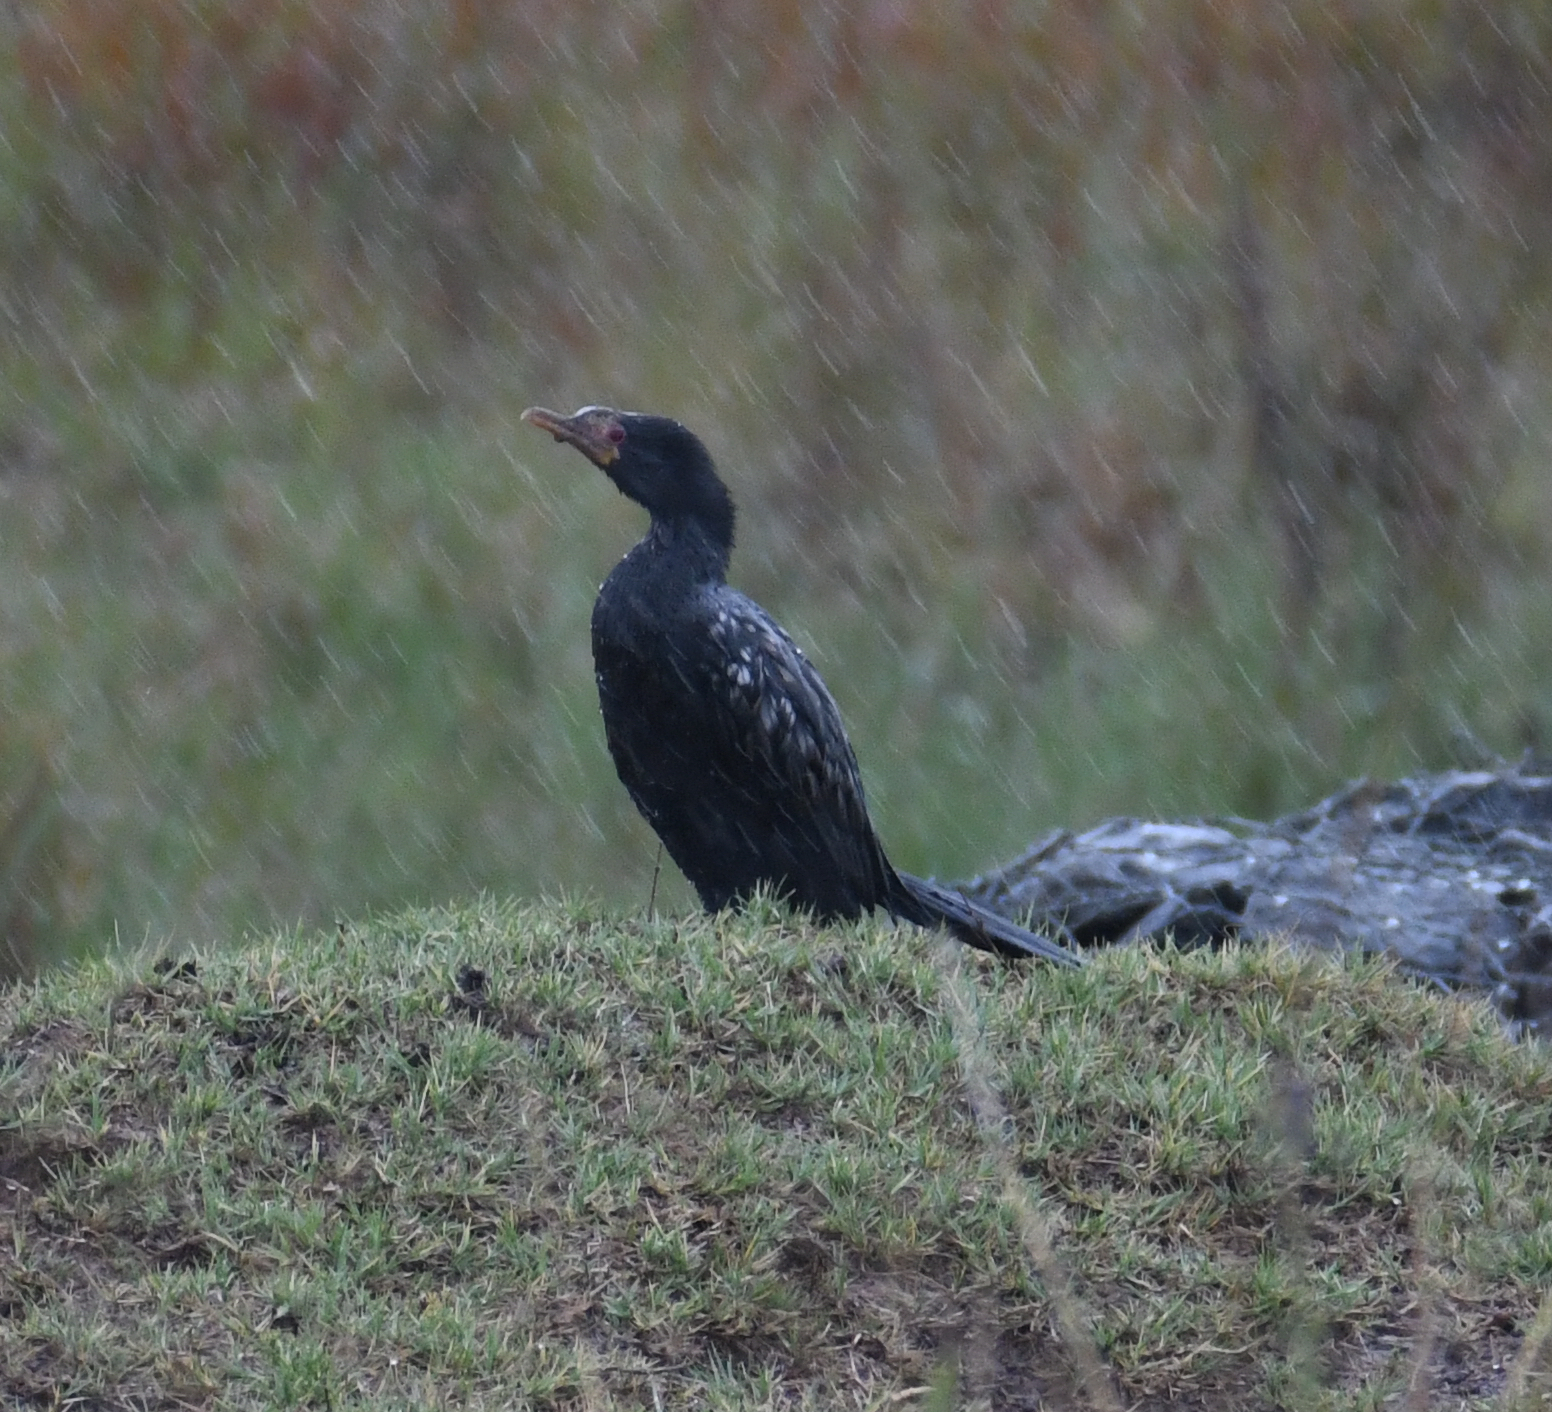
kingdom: Animalia
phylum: Chordata
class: Aves
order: Suliformes
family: Phalacrocoracidae
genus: Microcarbo
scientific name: Microcarbo africanus
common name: Long-tailed cormorant
